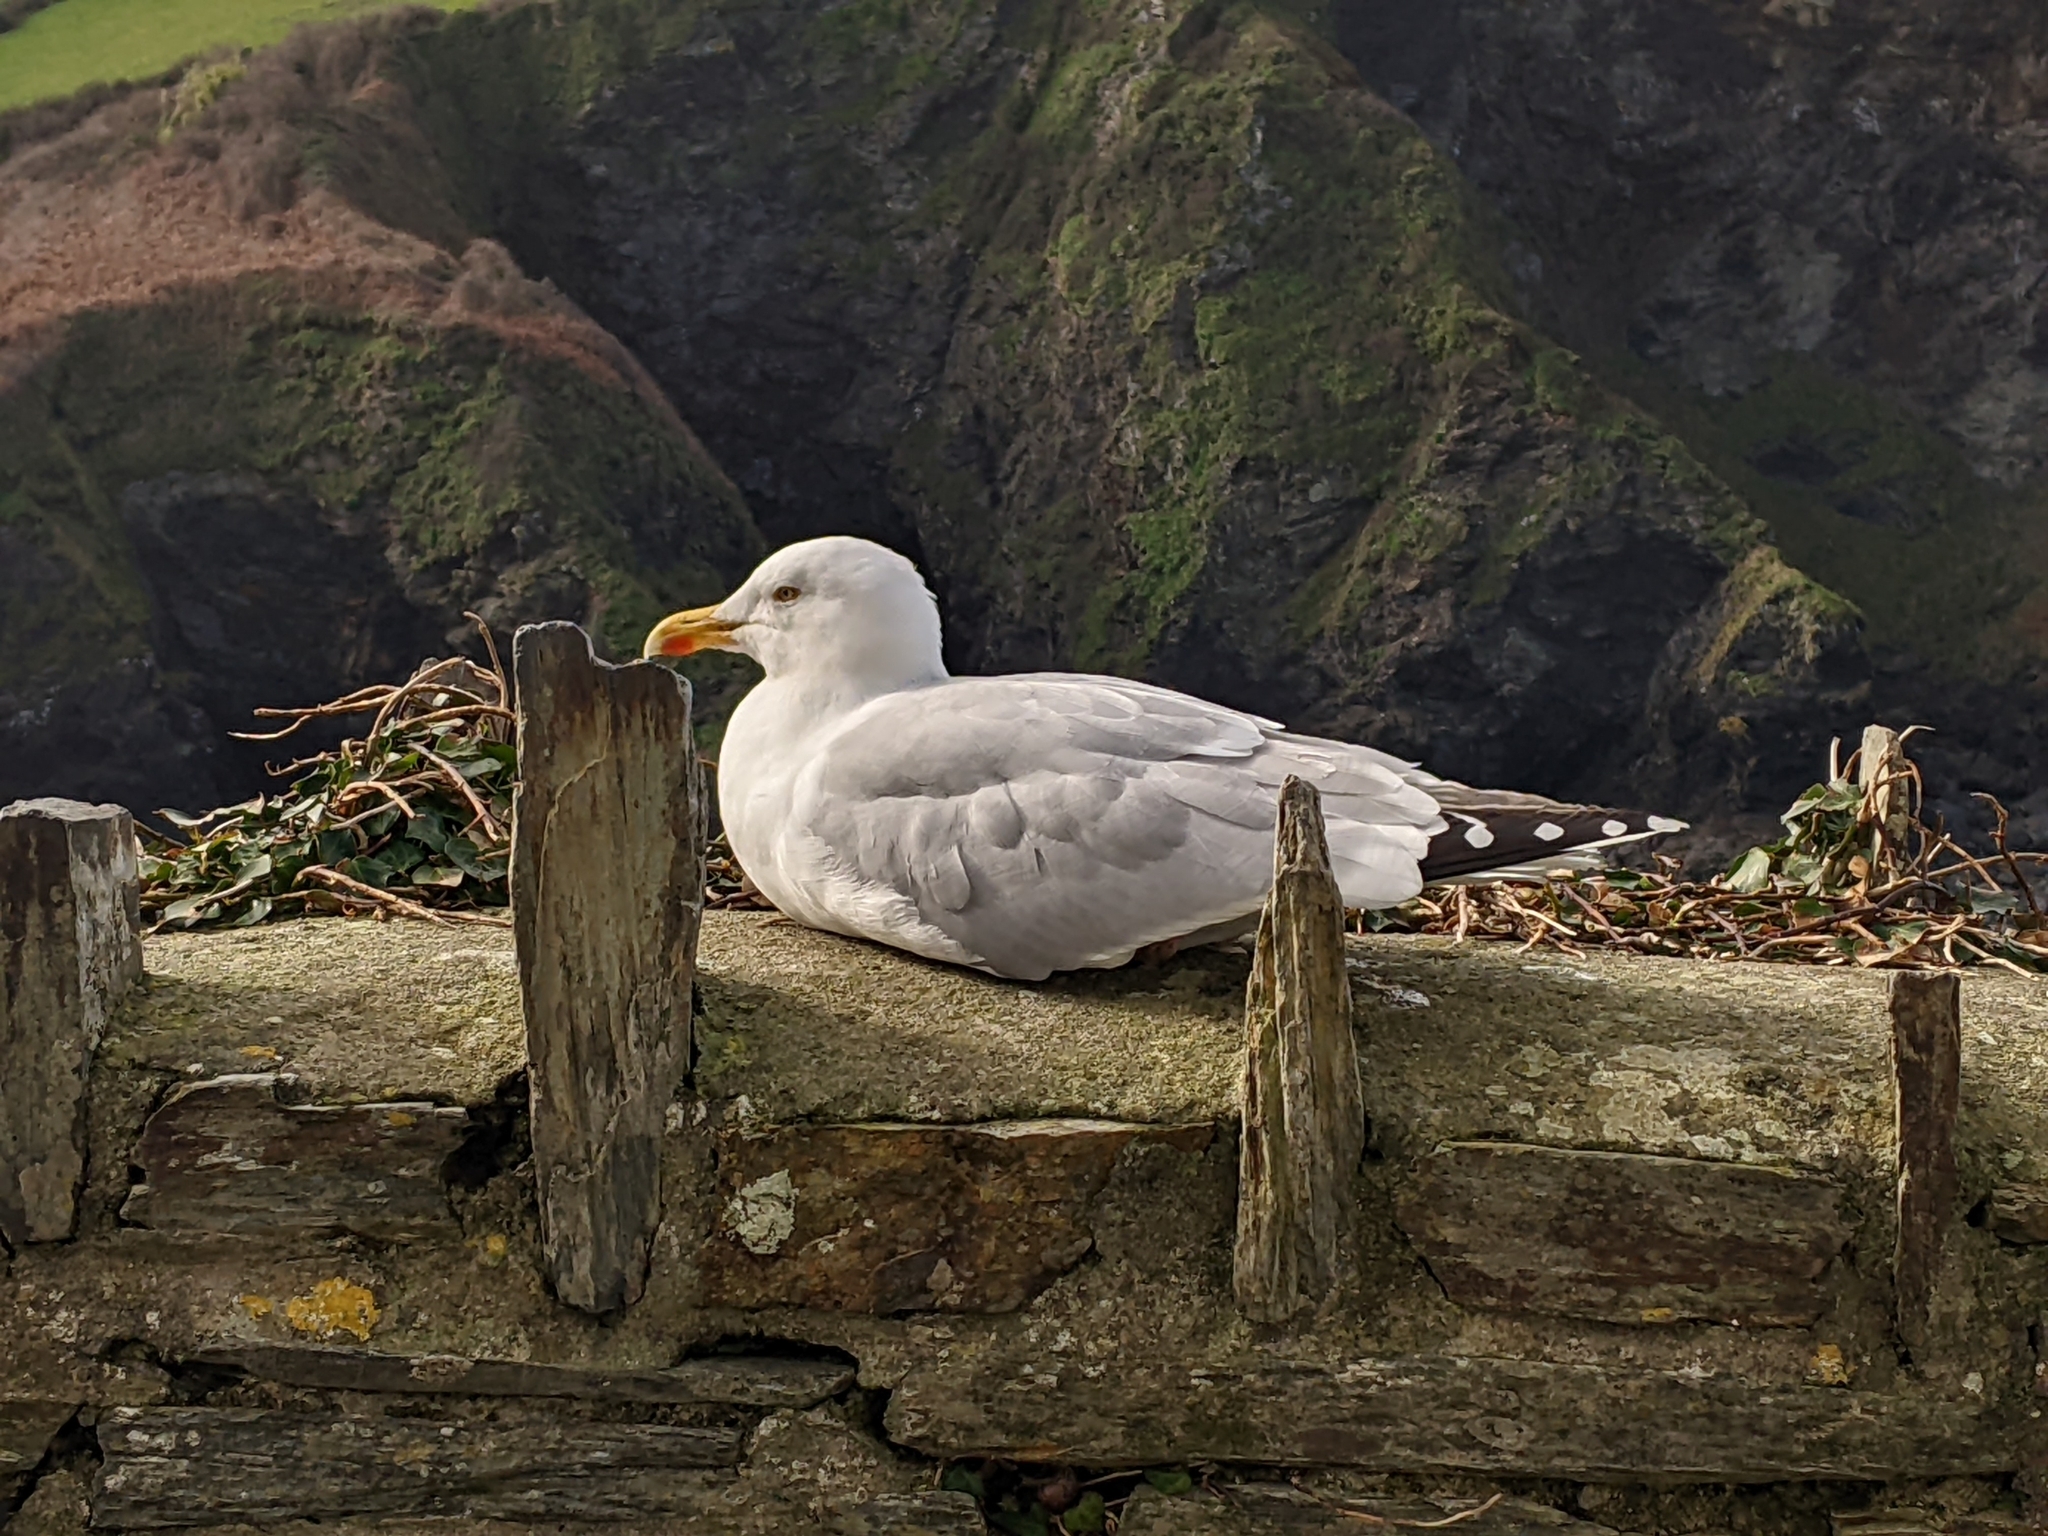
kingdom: Animalia
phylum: Chordata
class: Aves
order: Charadriiformes
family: Laridae
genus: Larus
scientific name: Larus argentatus
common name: Herring gull
